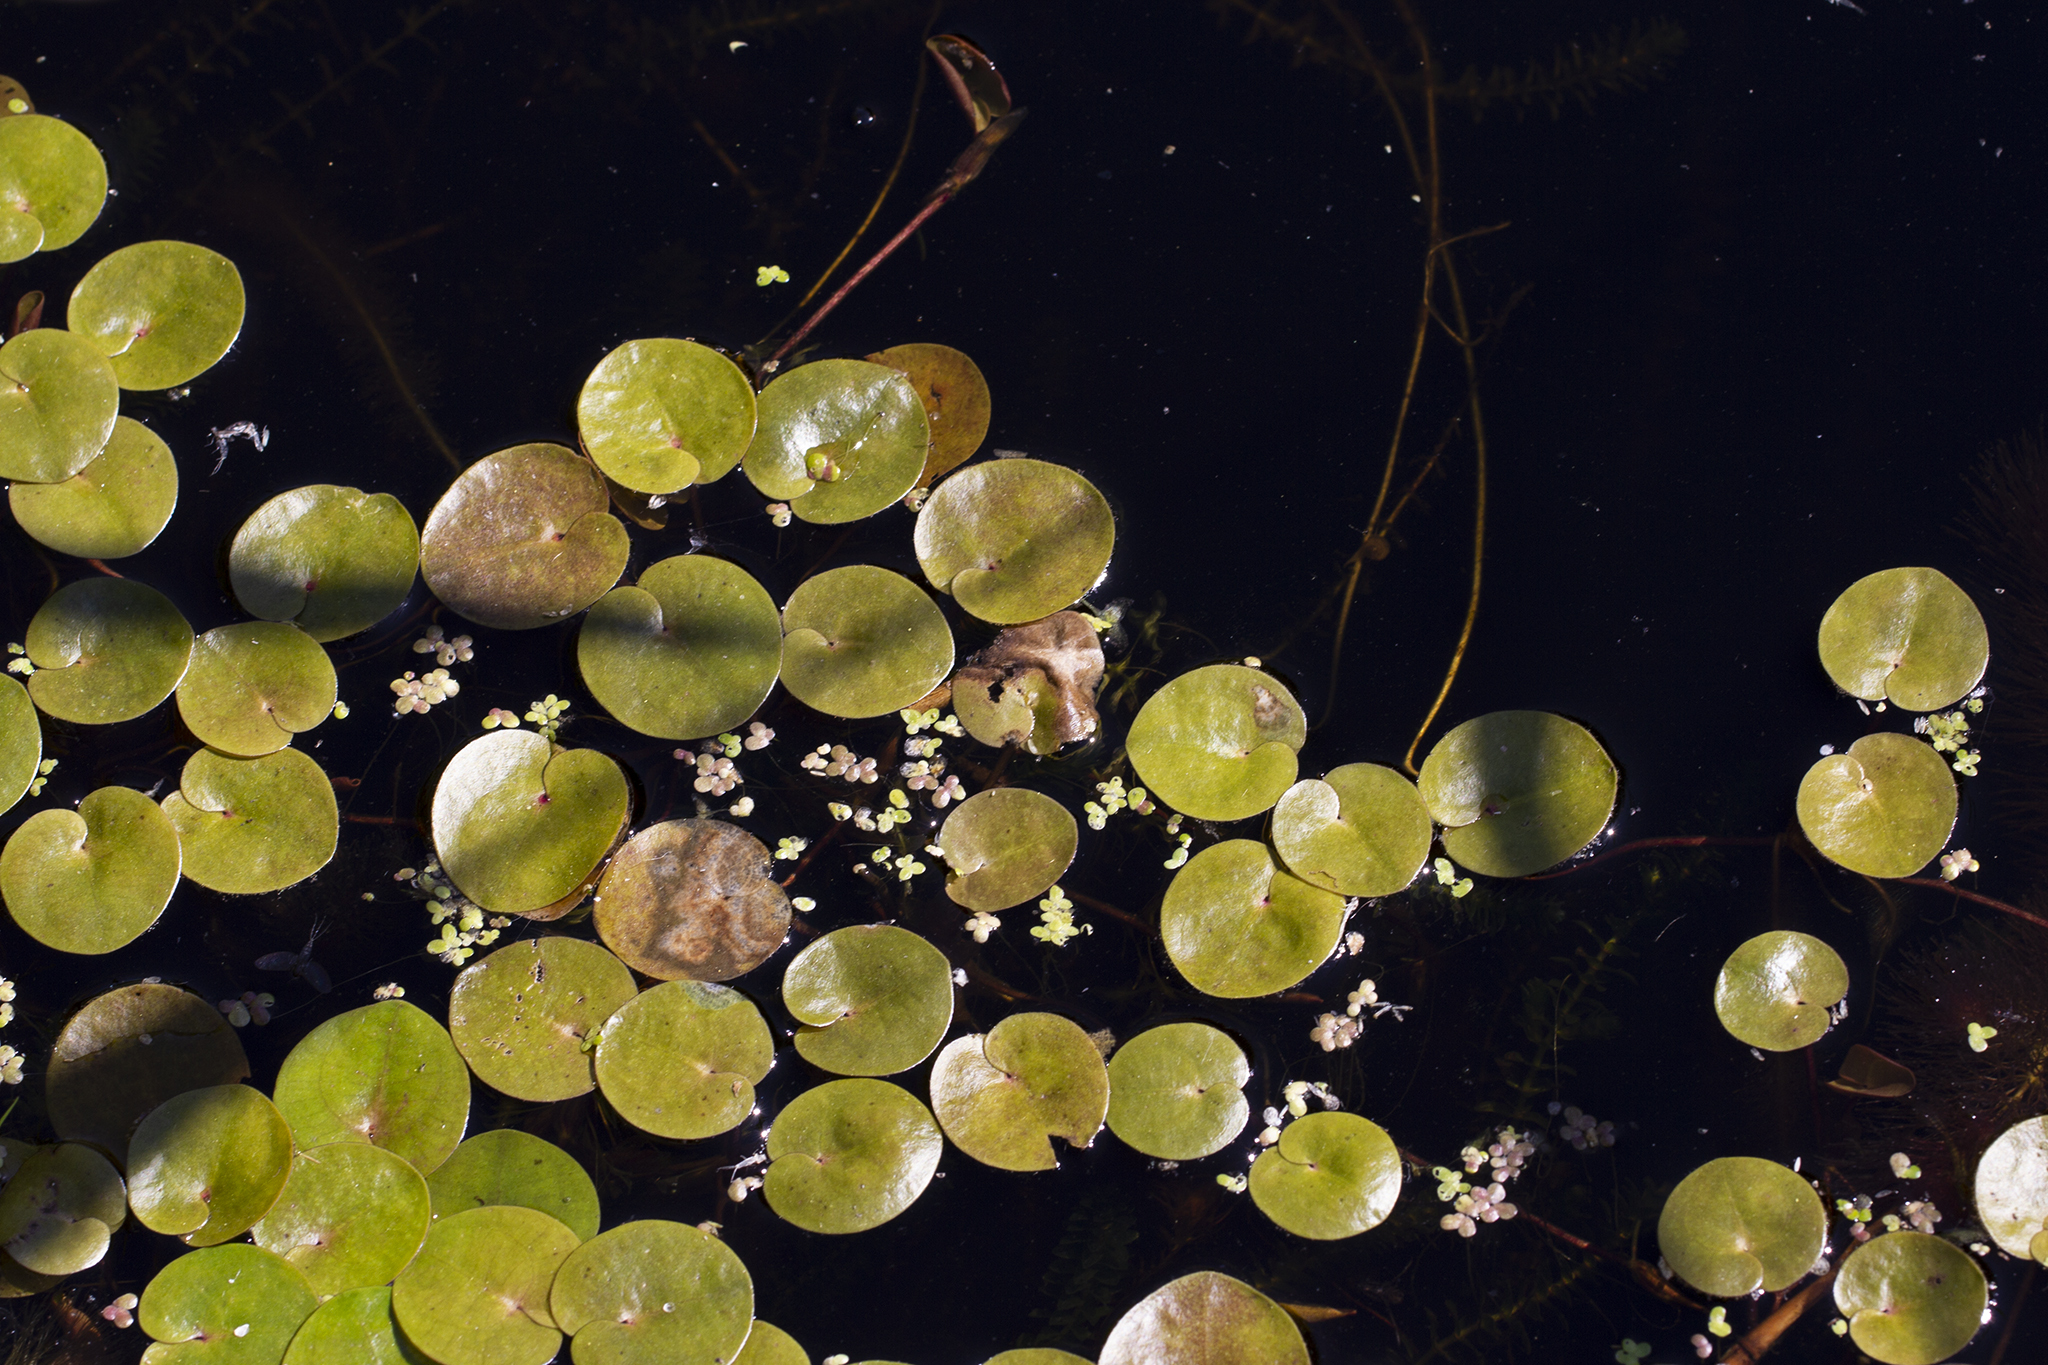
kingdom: Plantae
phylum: Tracheophyta
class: Liliopsida
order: Alismatales
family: Hydrocharitaceae
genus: Hydrocharis
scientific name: Hydrocharis morsus-ranae
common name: Frogbit
